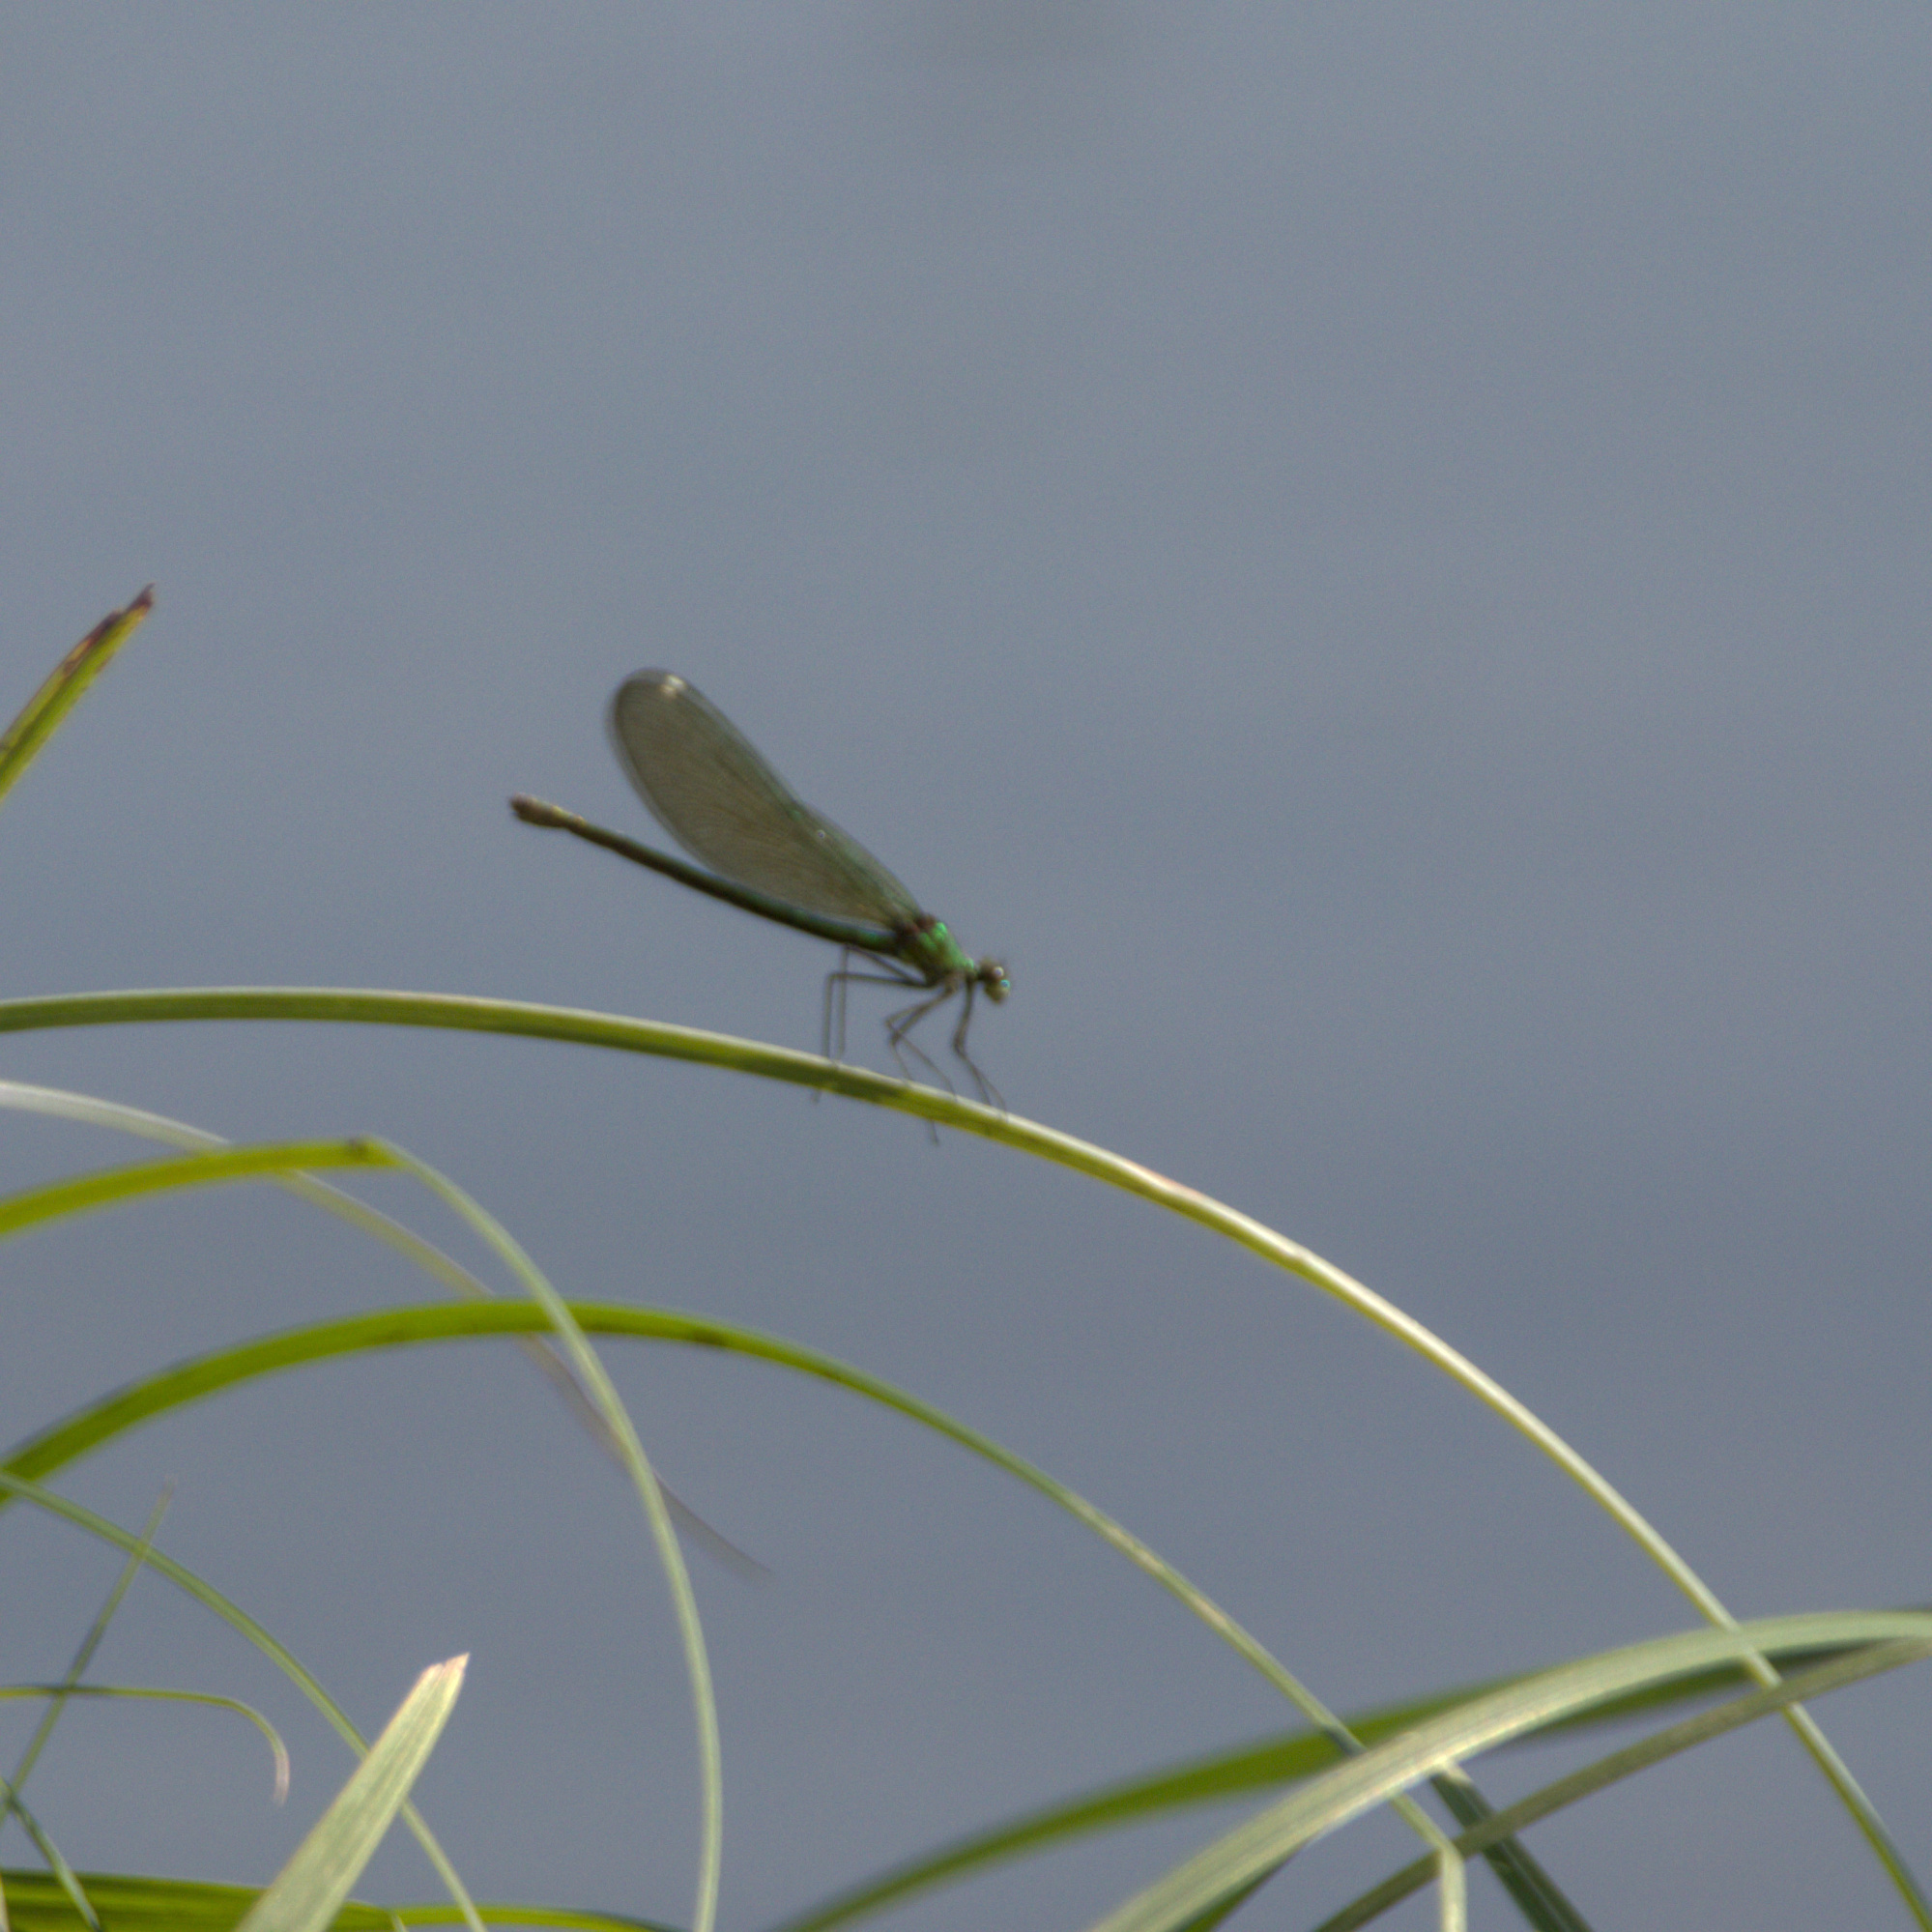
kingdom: Animalia
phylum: Arthropoda
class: Insecta
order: Odonata
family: Calopterygidae
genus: Calopteryx
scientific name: Calopteryx splendens
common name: Banded demoiselle
